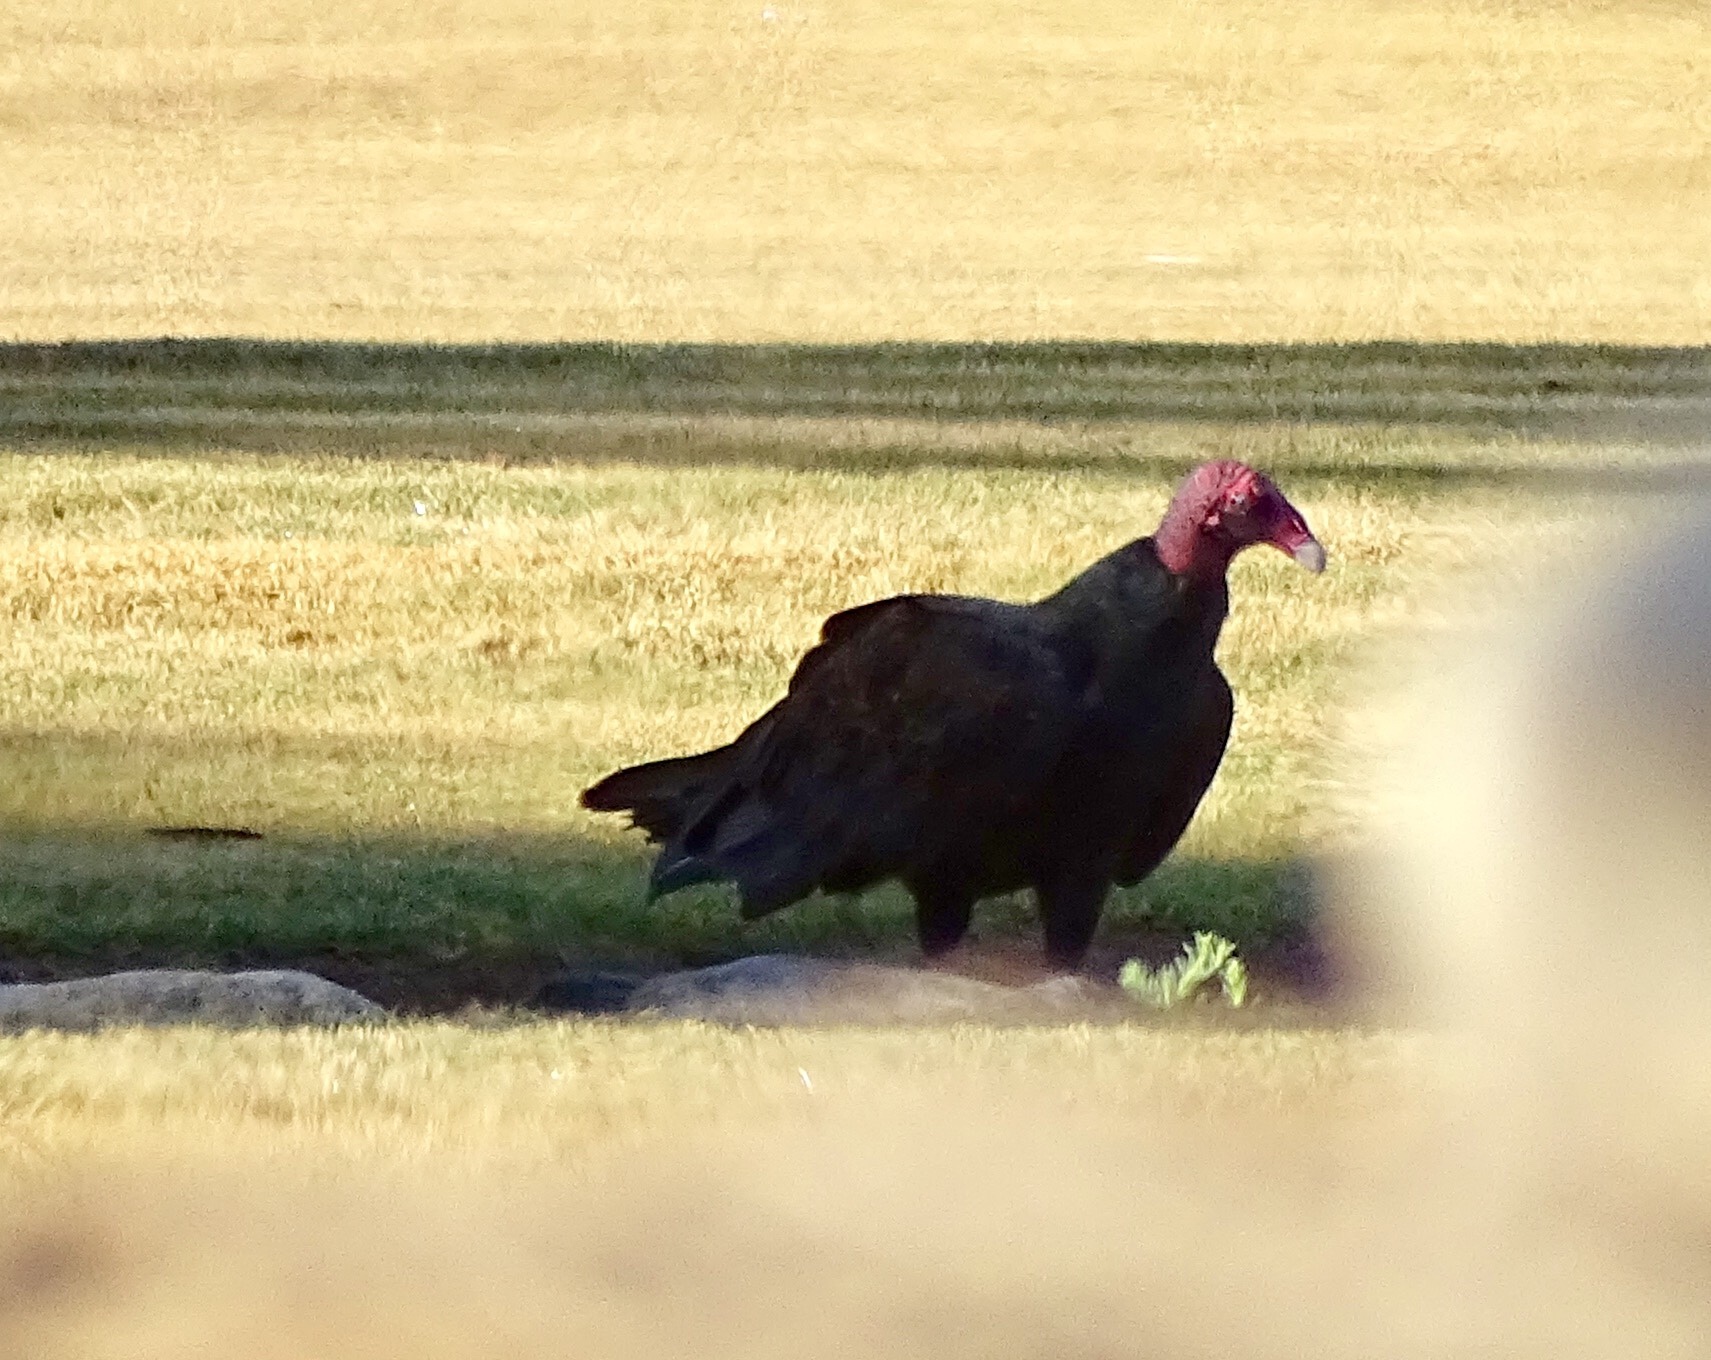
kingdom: Animalia
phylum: Chordata
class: Aves
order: Accipitriformes
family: Cathartidae
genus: Cathartes
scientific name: Cathartes aura
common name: Turkey vulture
